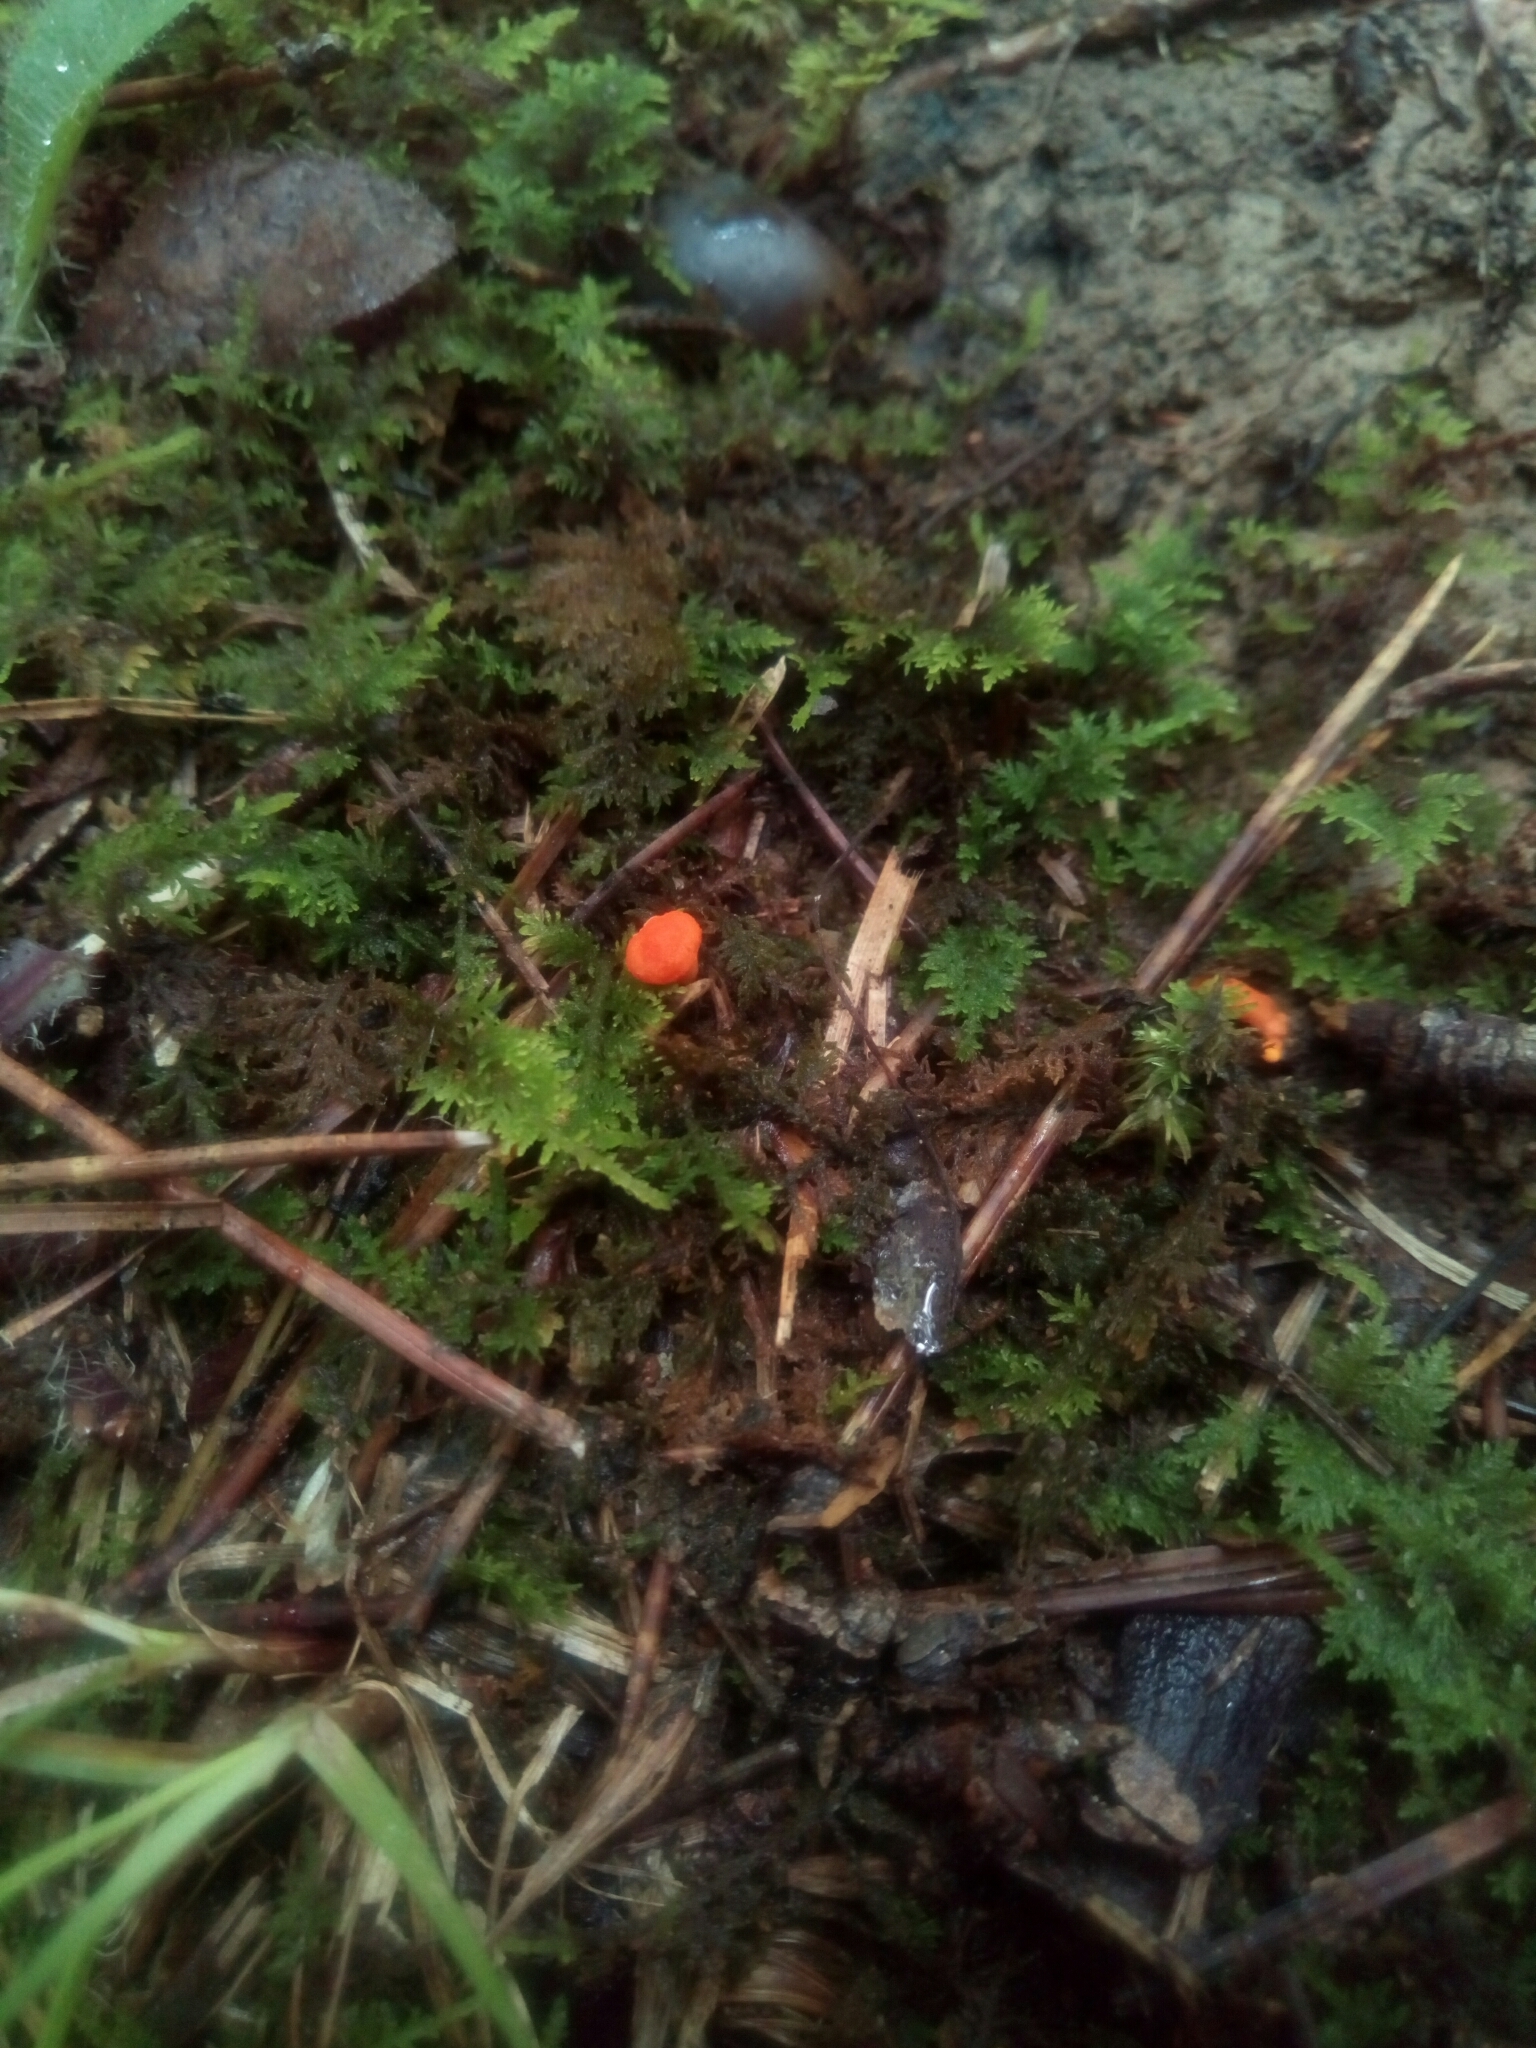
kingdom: Fungi
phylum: Basidiomycota
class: Agaricomycetes
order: Cantharellales
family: Hydnaceae
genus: Cantharellus
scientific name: Cantharellus cinnabarinus
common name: Cinnabar chanterelle
